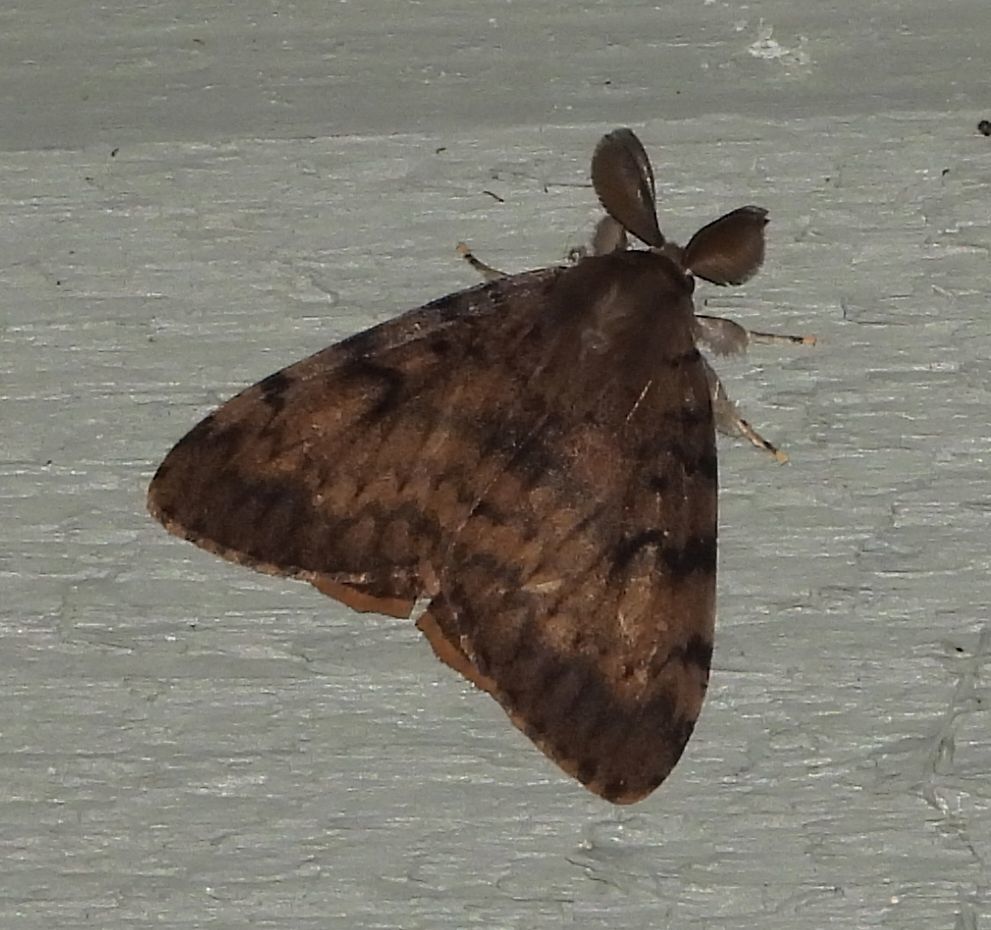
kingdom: Animalia
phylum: Arthropoda
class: Insecta
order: Lepidoptera
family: Erebidae
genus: Lymantria
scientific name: Lymantria dispar
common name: Gypsy moth
